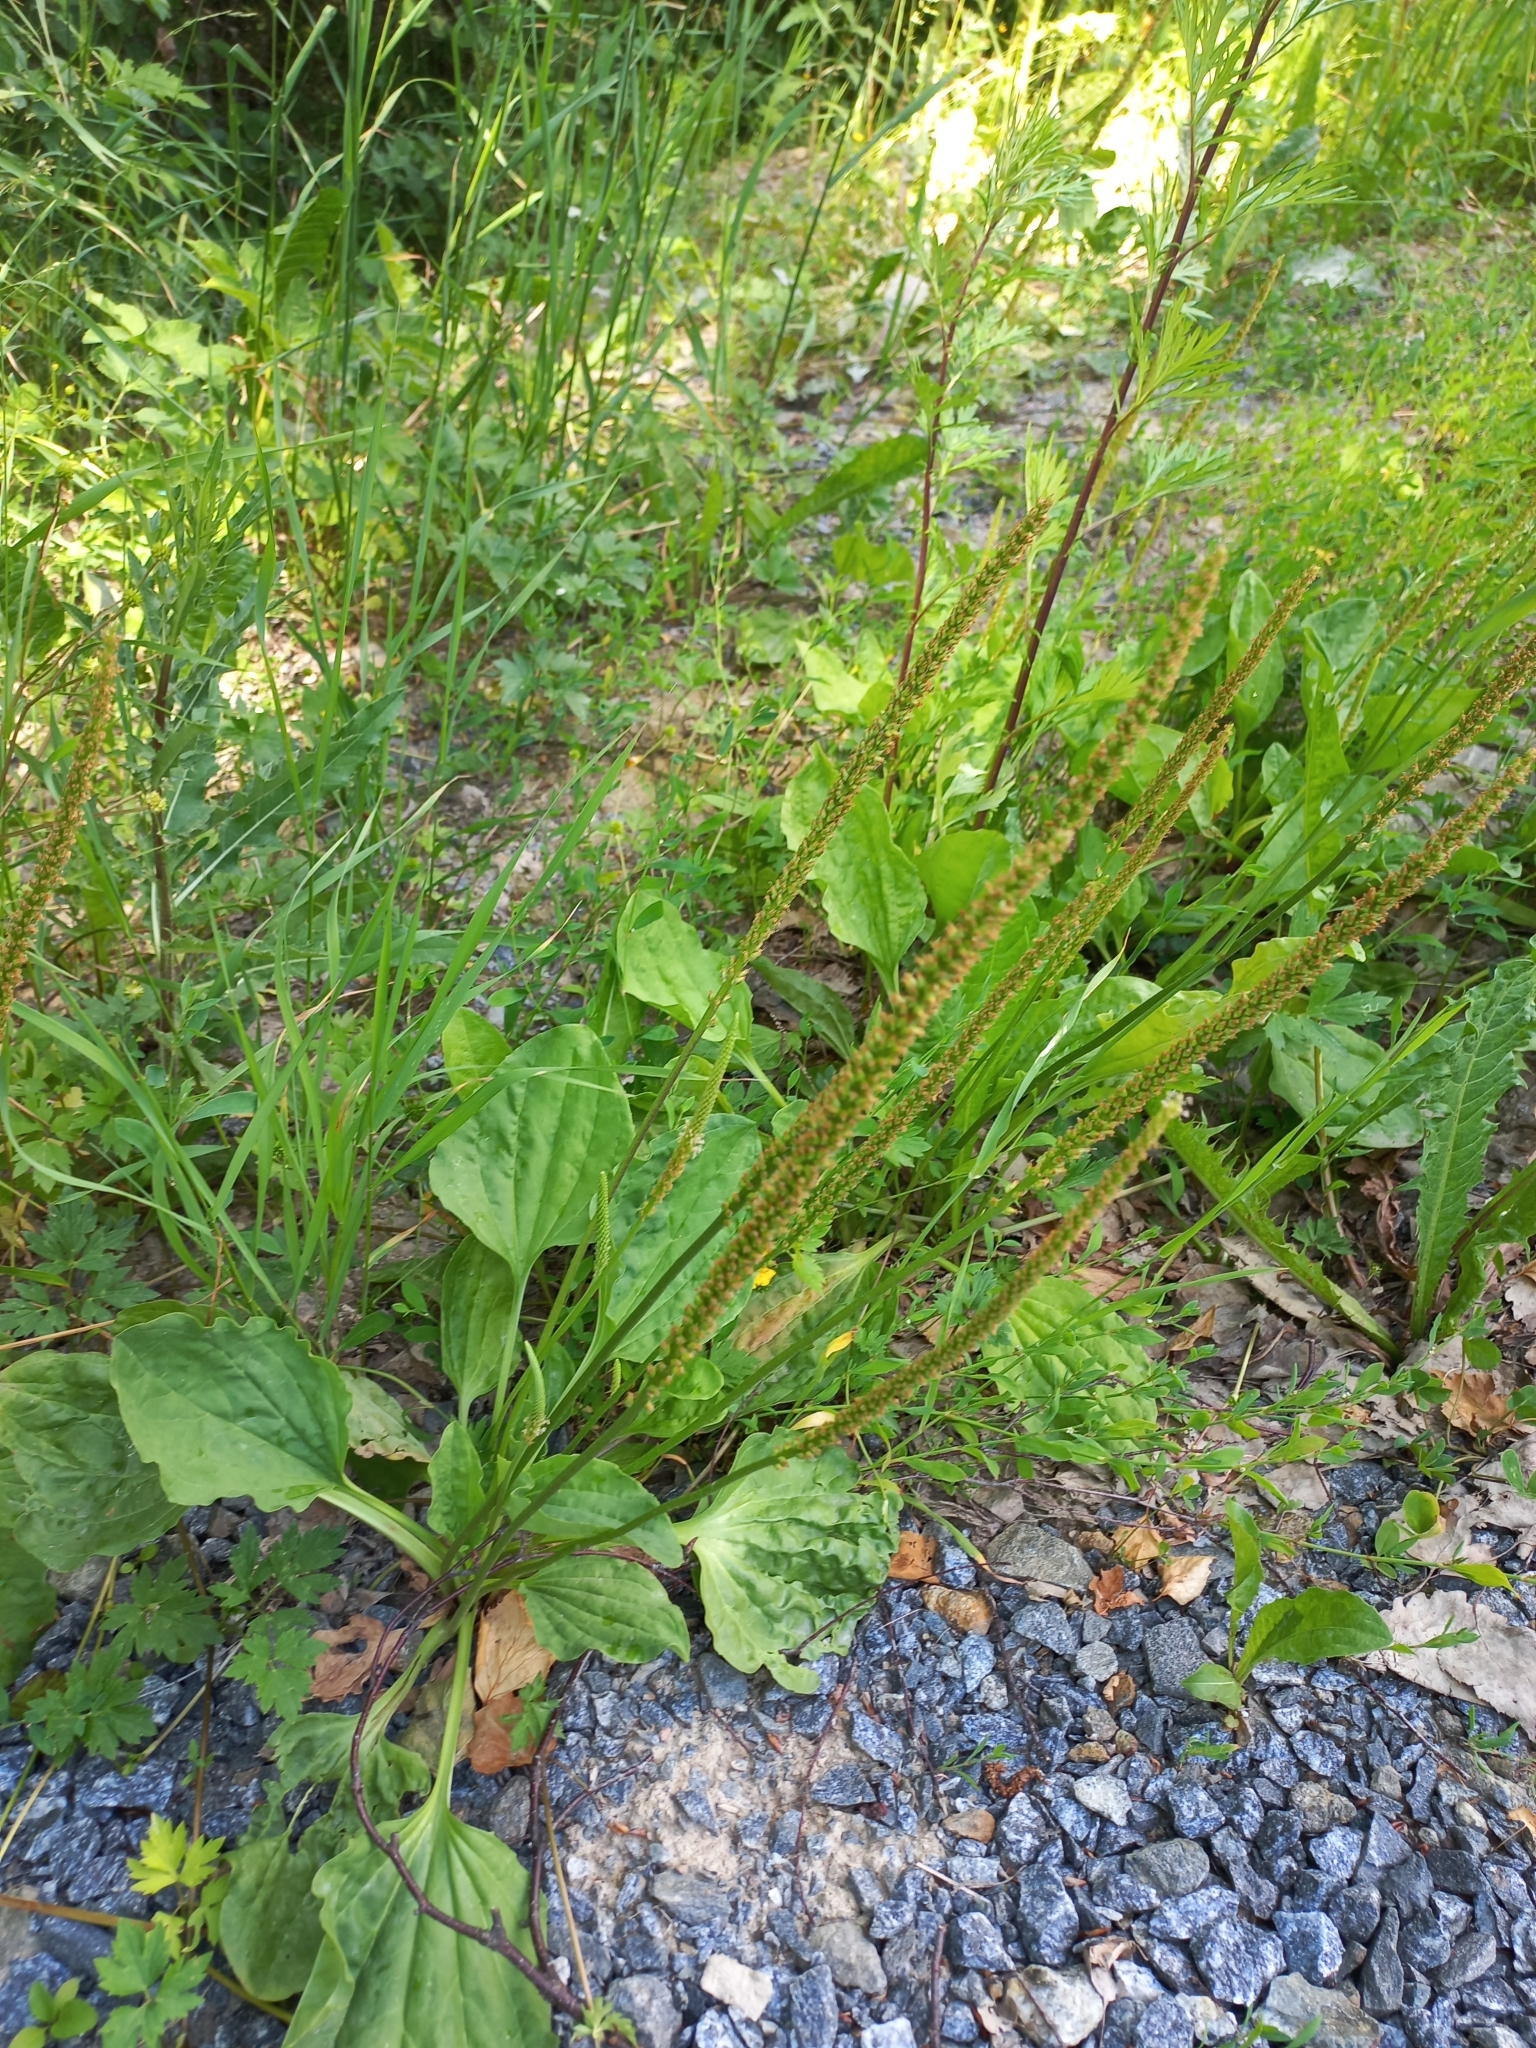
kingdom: Plantae
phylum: Tracheophyta
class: Magnoliopsida
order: Lamiales
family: Plantaginaceae
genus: Plantago
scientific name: Plantago major
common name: Common plantain
